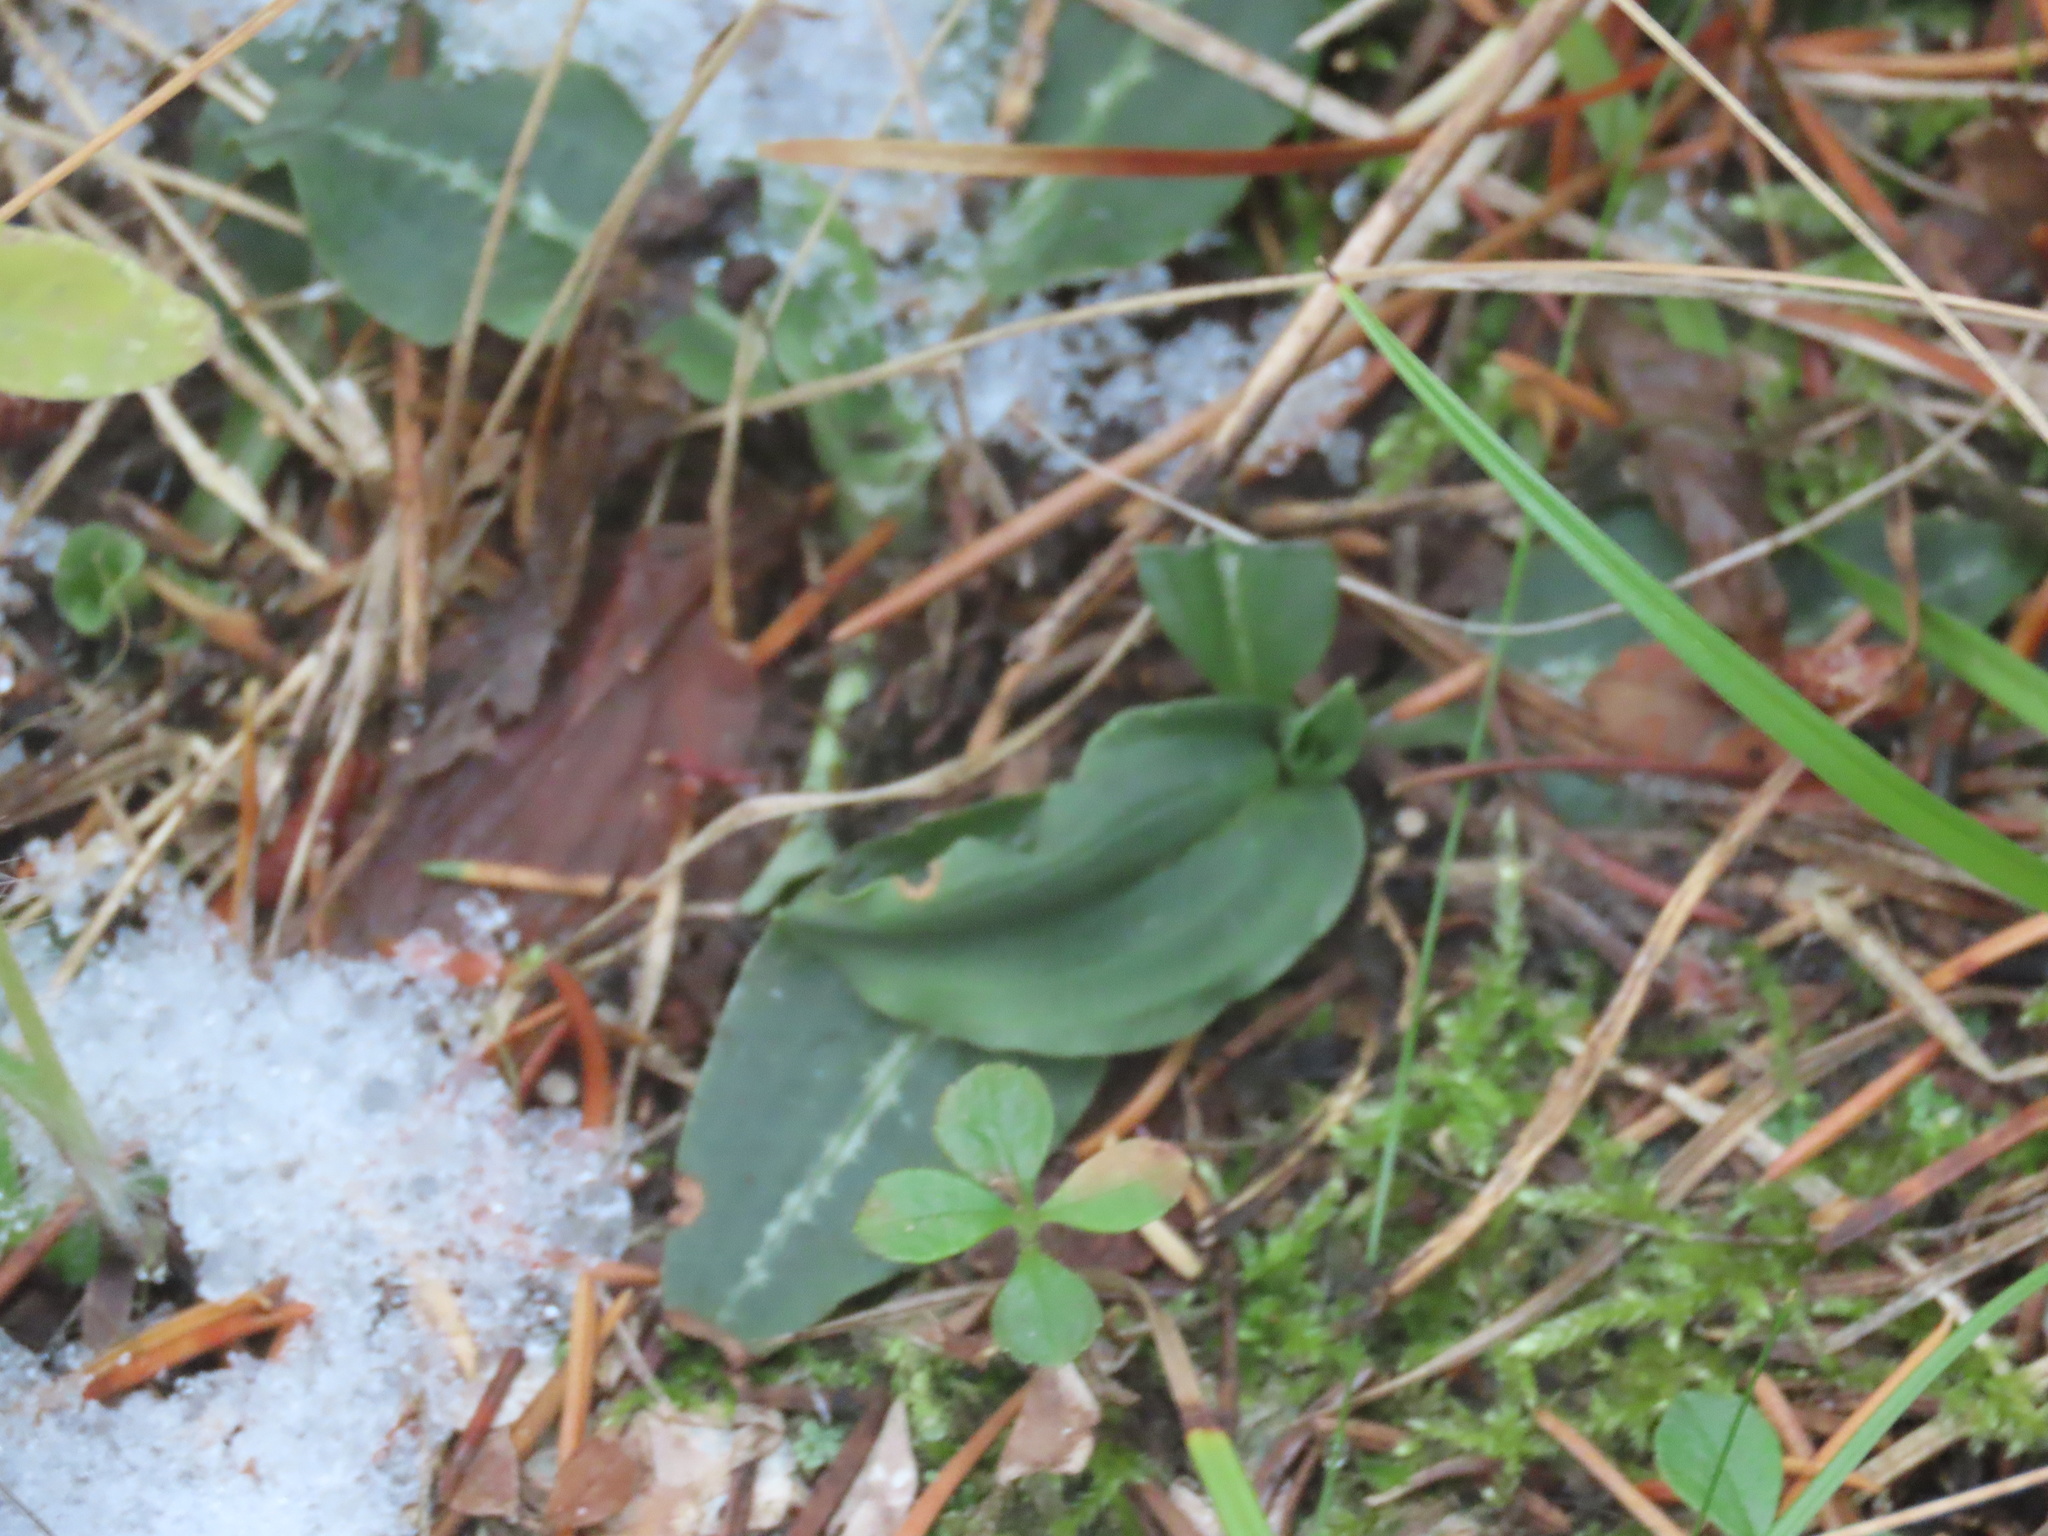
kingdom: Plantae
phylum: Tracheophyta
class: Liliopsida
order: Asparagales
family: Orchidaceae
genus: Goodyera
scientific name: Goodyera oblongifolia
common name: Giant rattlesnake-plantain
